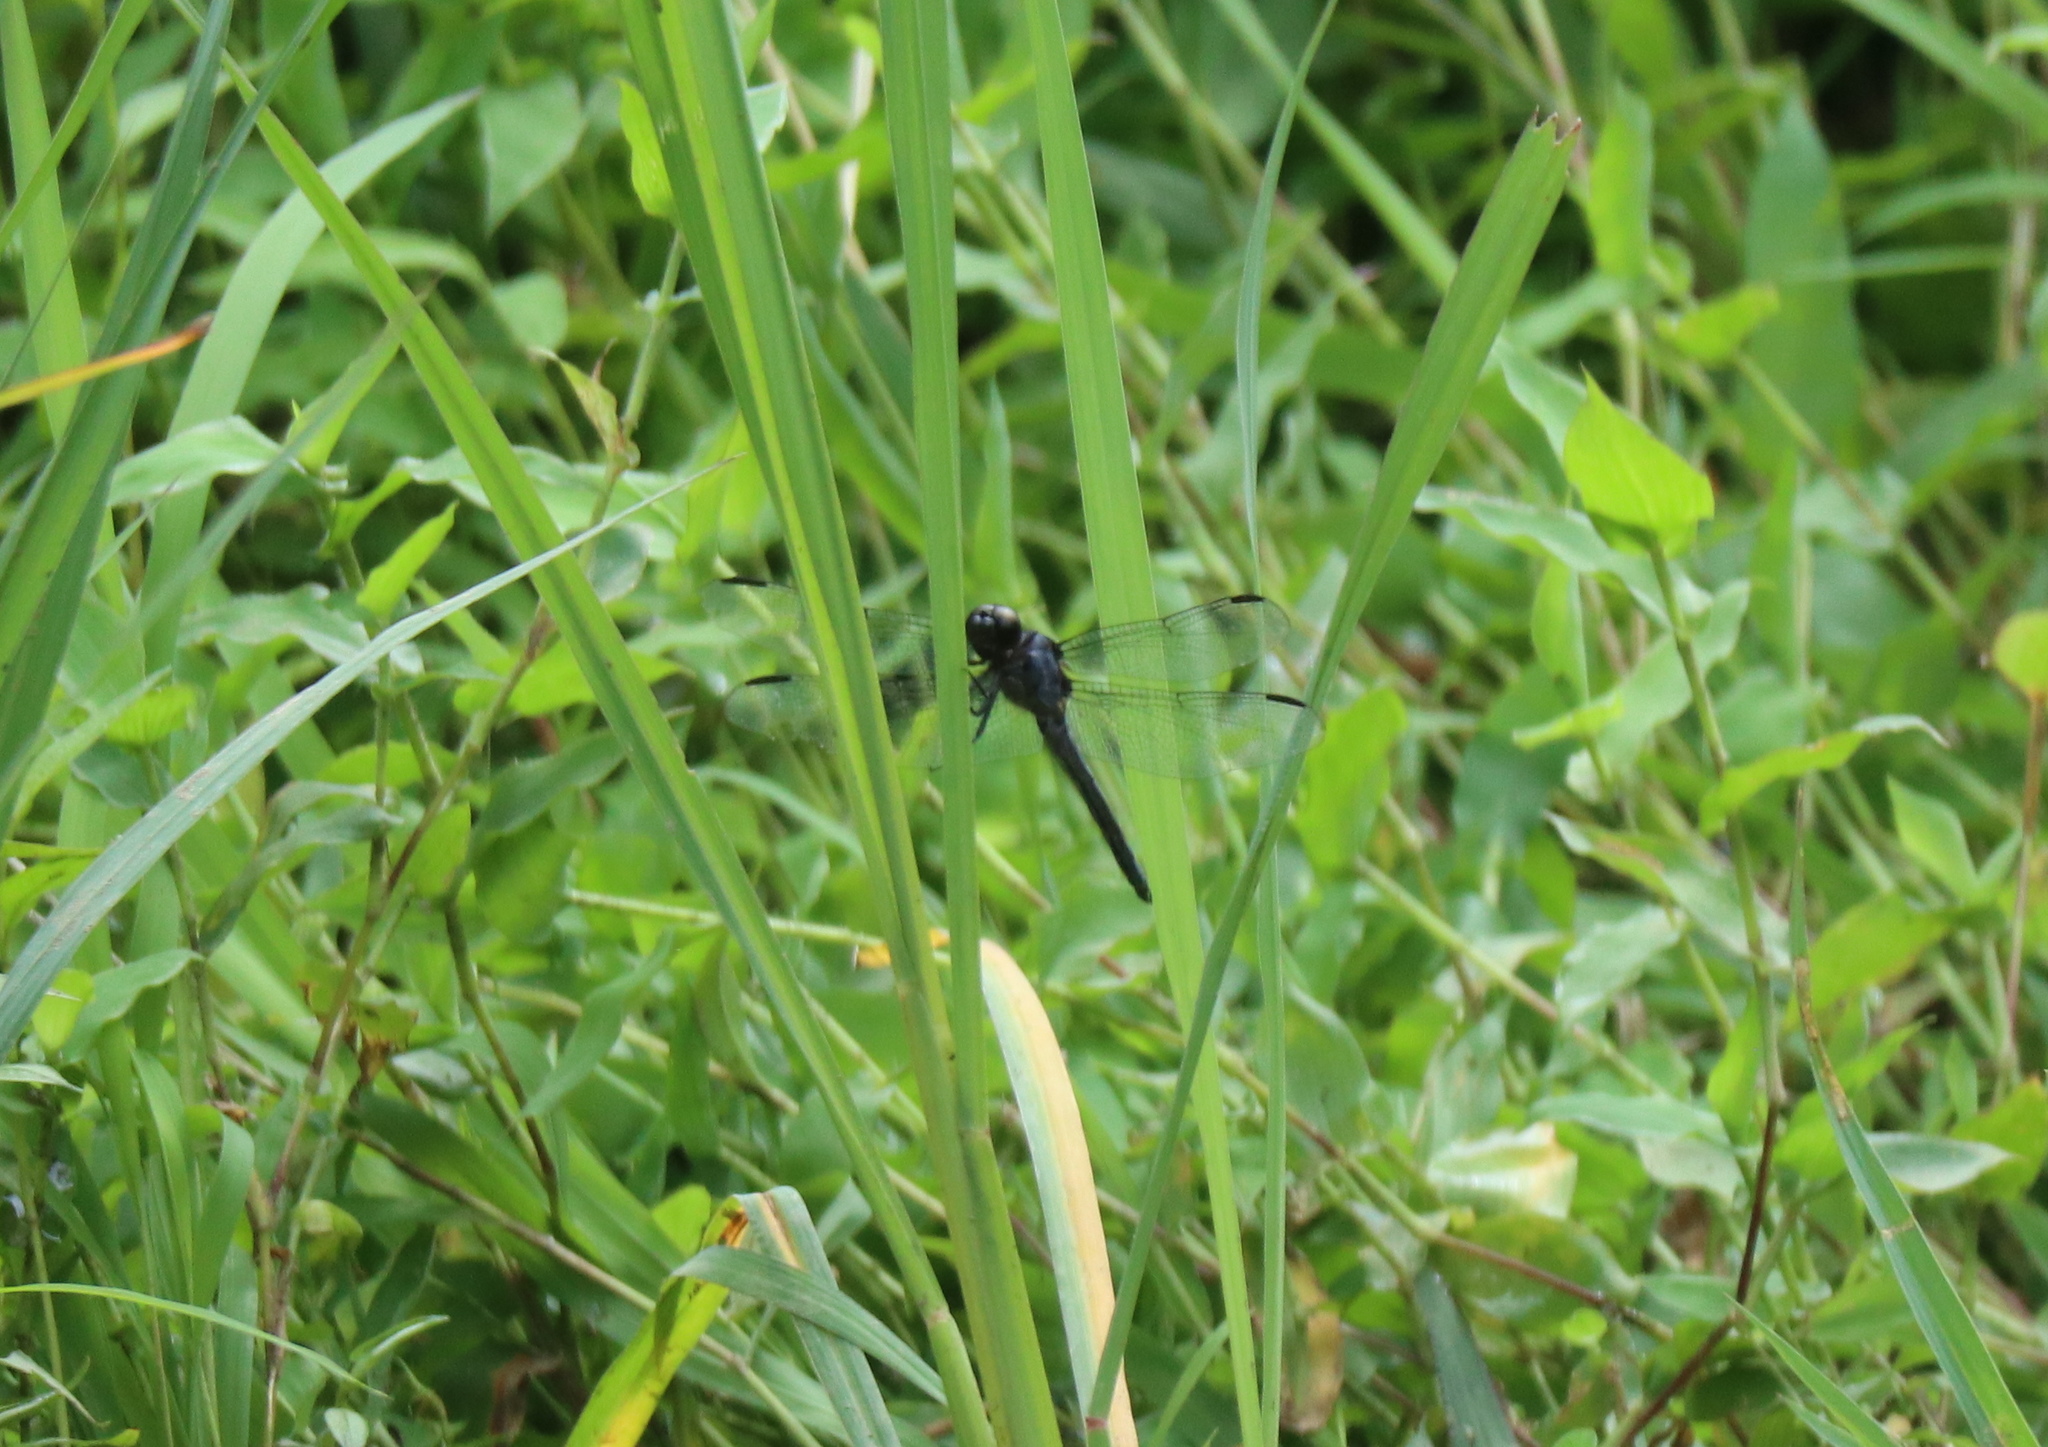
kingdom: Animalia
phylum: Arthropoda
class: Insecta
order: Odonata
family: Libellulidae
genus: Libellula
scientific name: Libellula incesta
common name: Slaty skimmer
